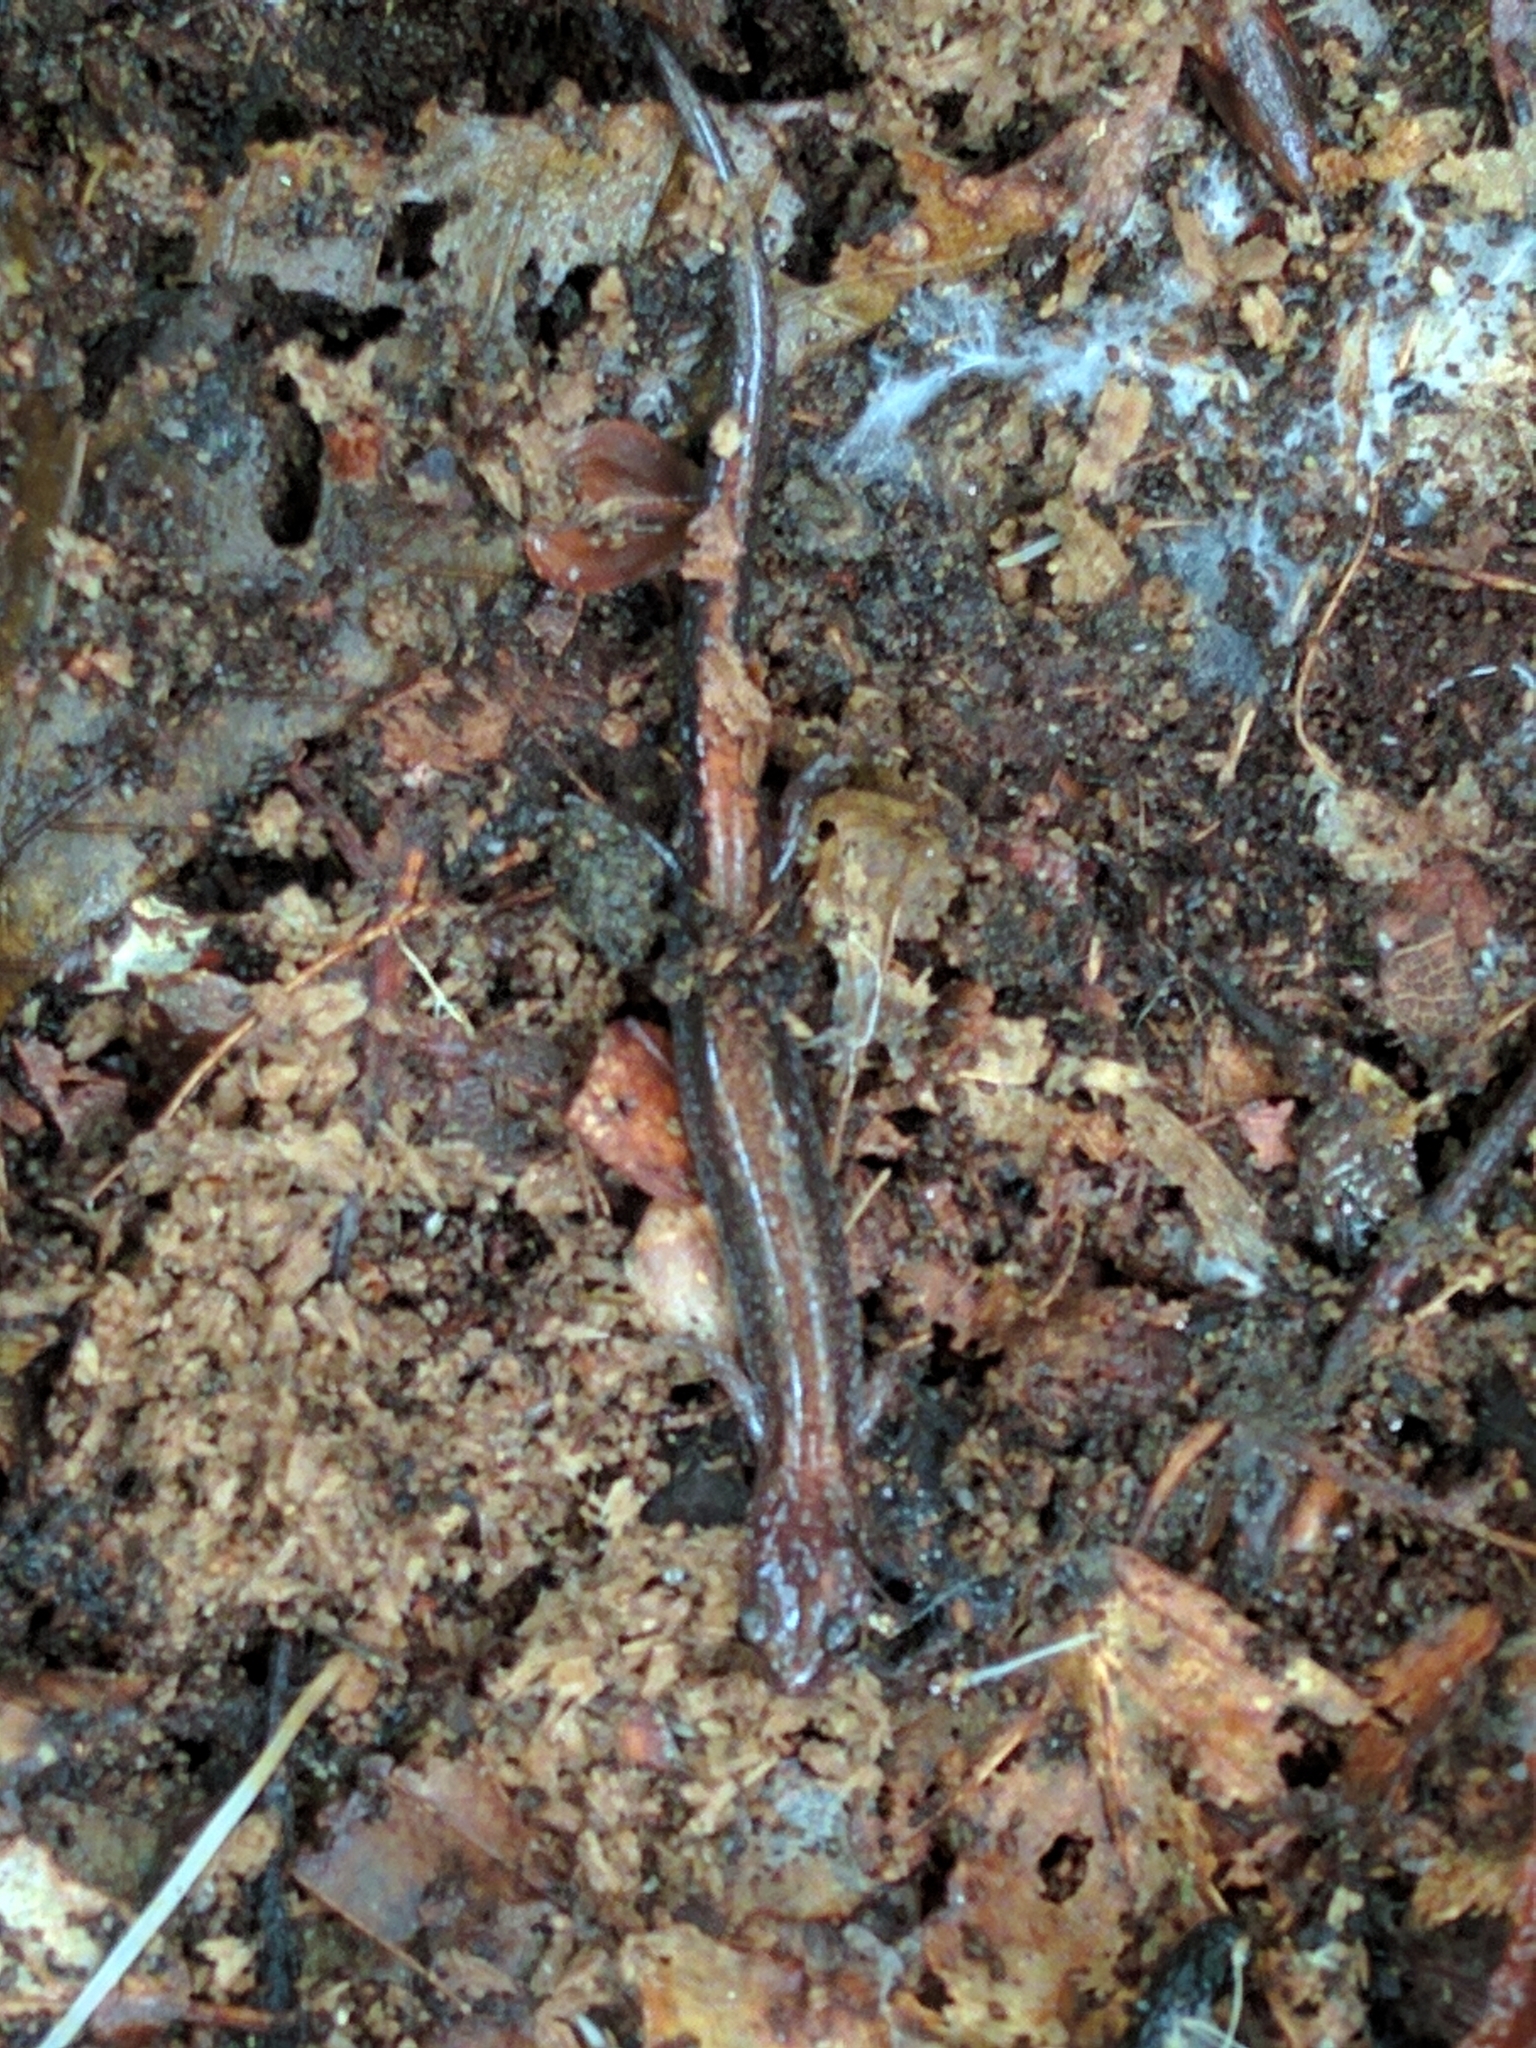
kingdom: Animalia
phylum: Chordata
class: Amphibia
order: Caudata
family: Plethodontidae
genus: Plethodon
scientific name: Plethodon cinereus
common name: Redback salamander
